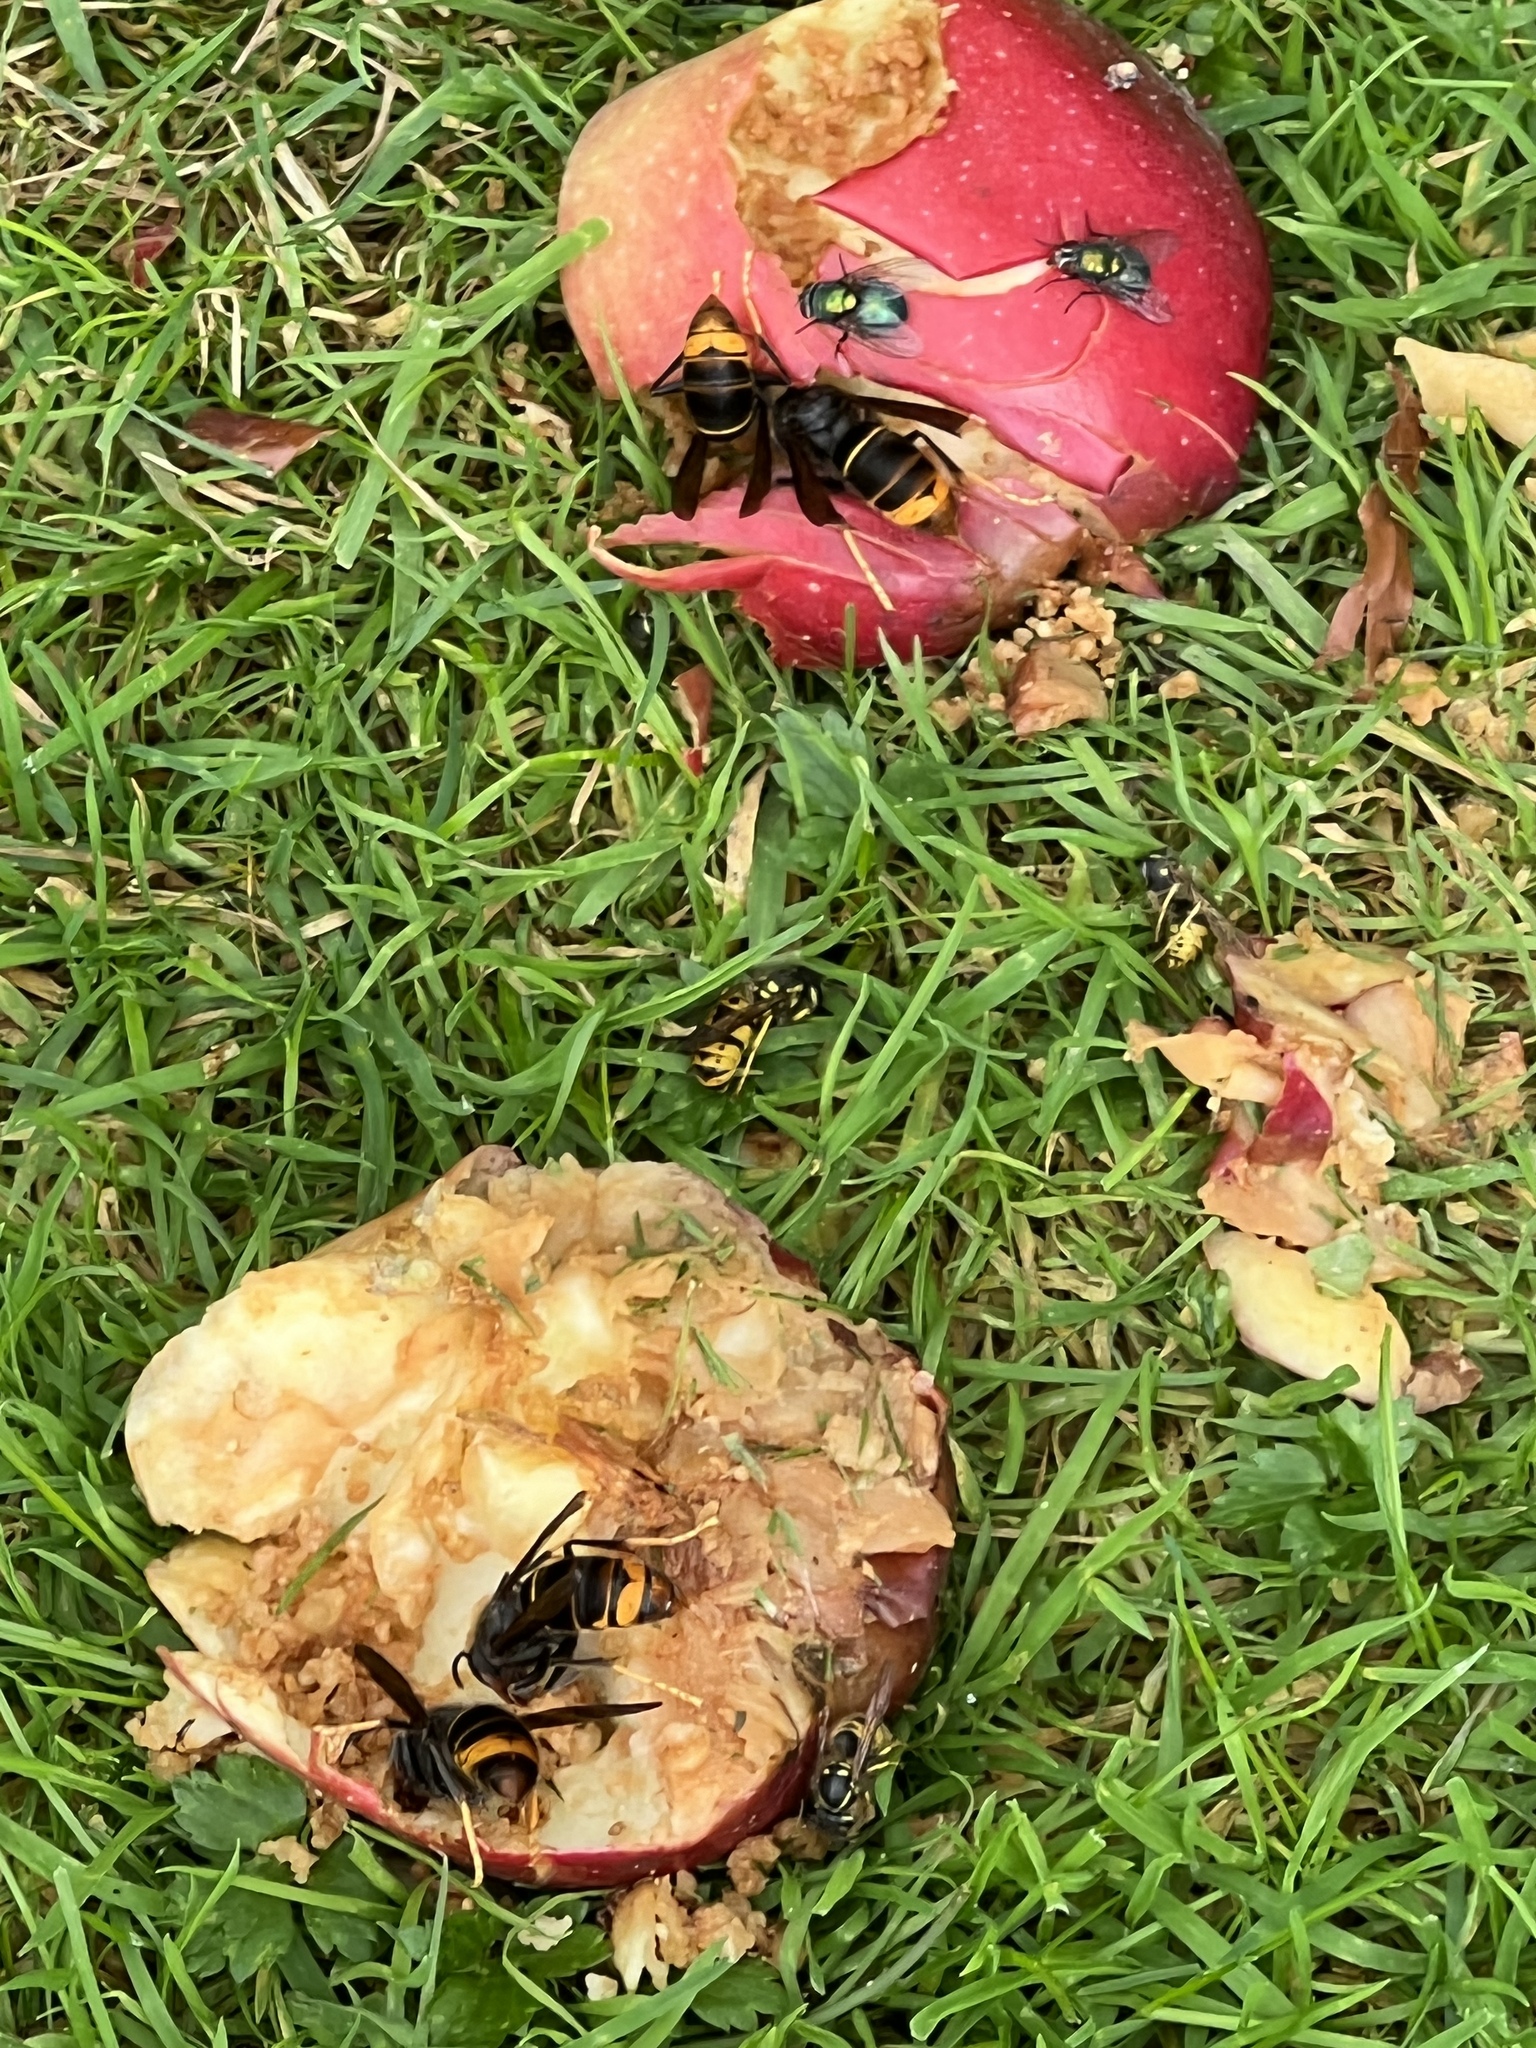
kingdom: Animalia
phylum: Arthropoda
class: Insecta
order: Hymenoptera
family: Vespidae
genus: Vespa
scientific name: Vespa velutina
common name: Asian hornet
